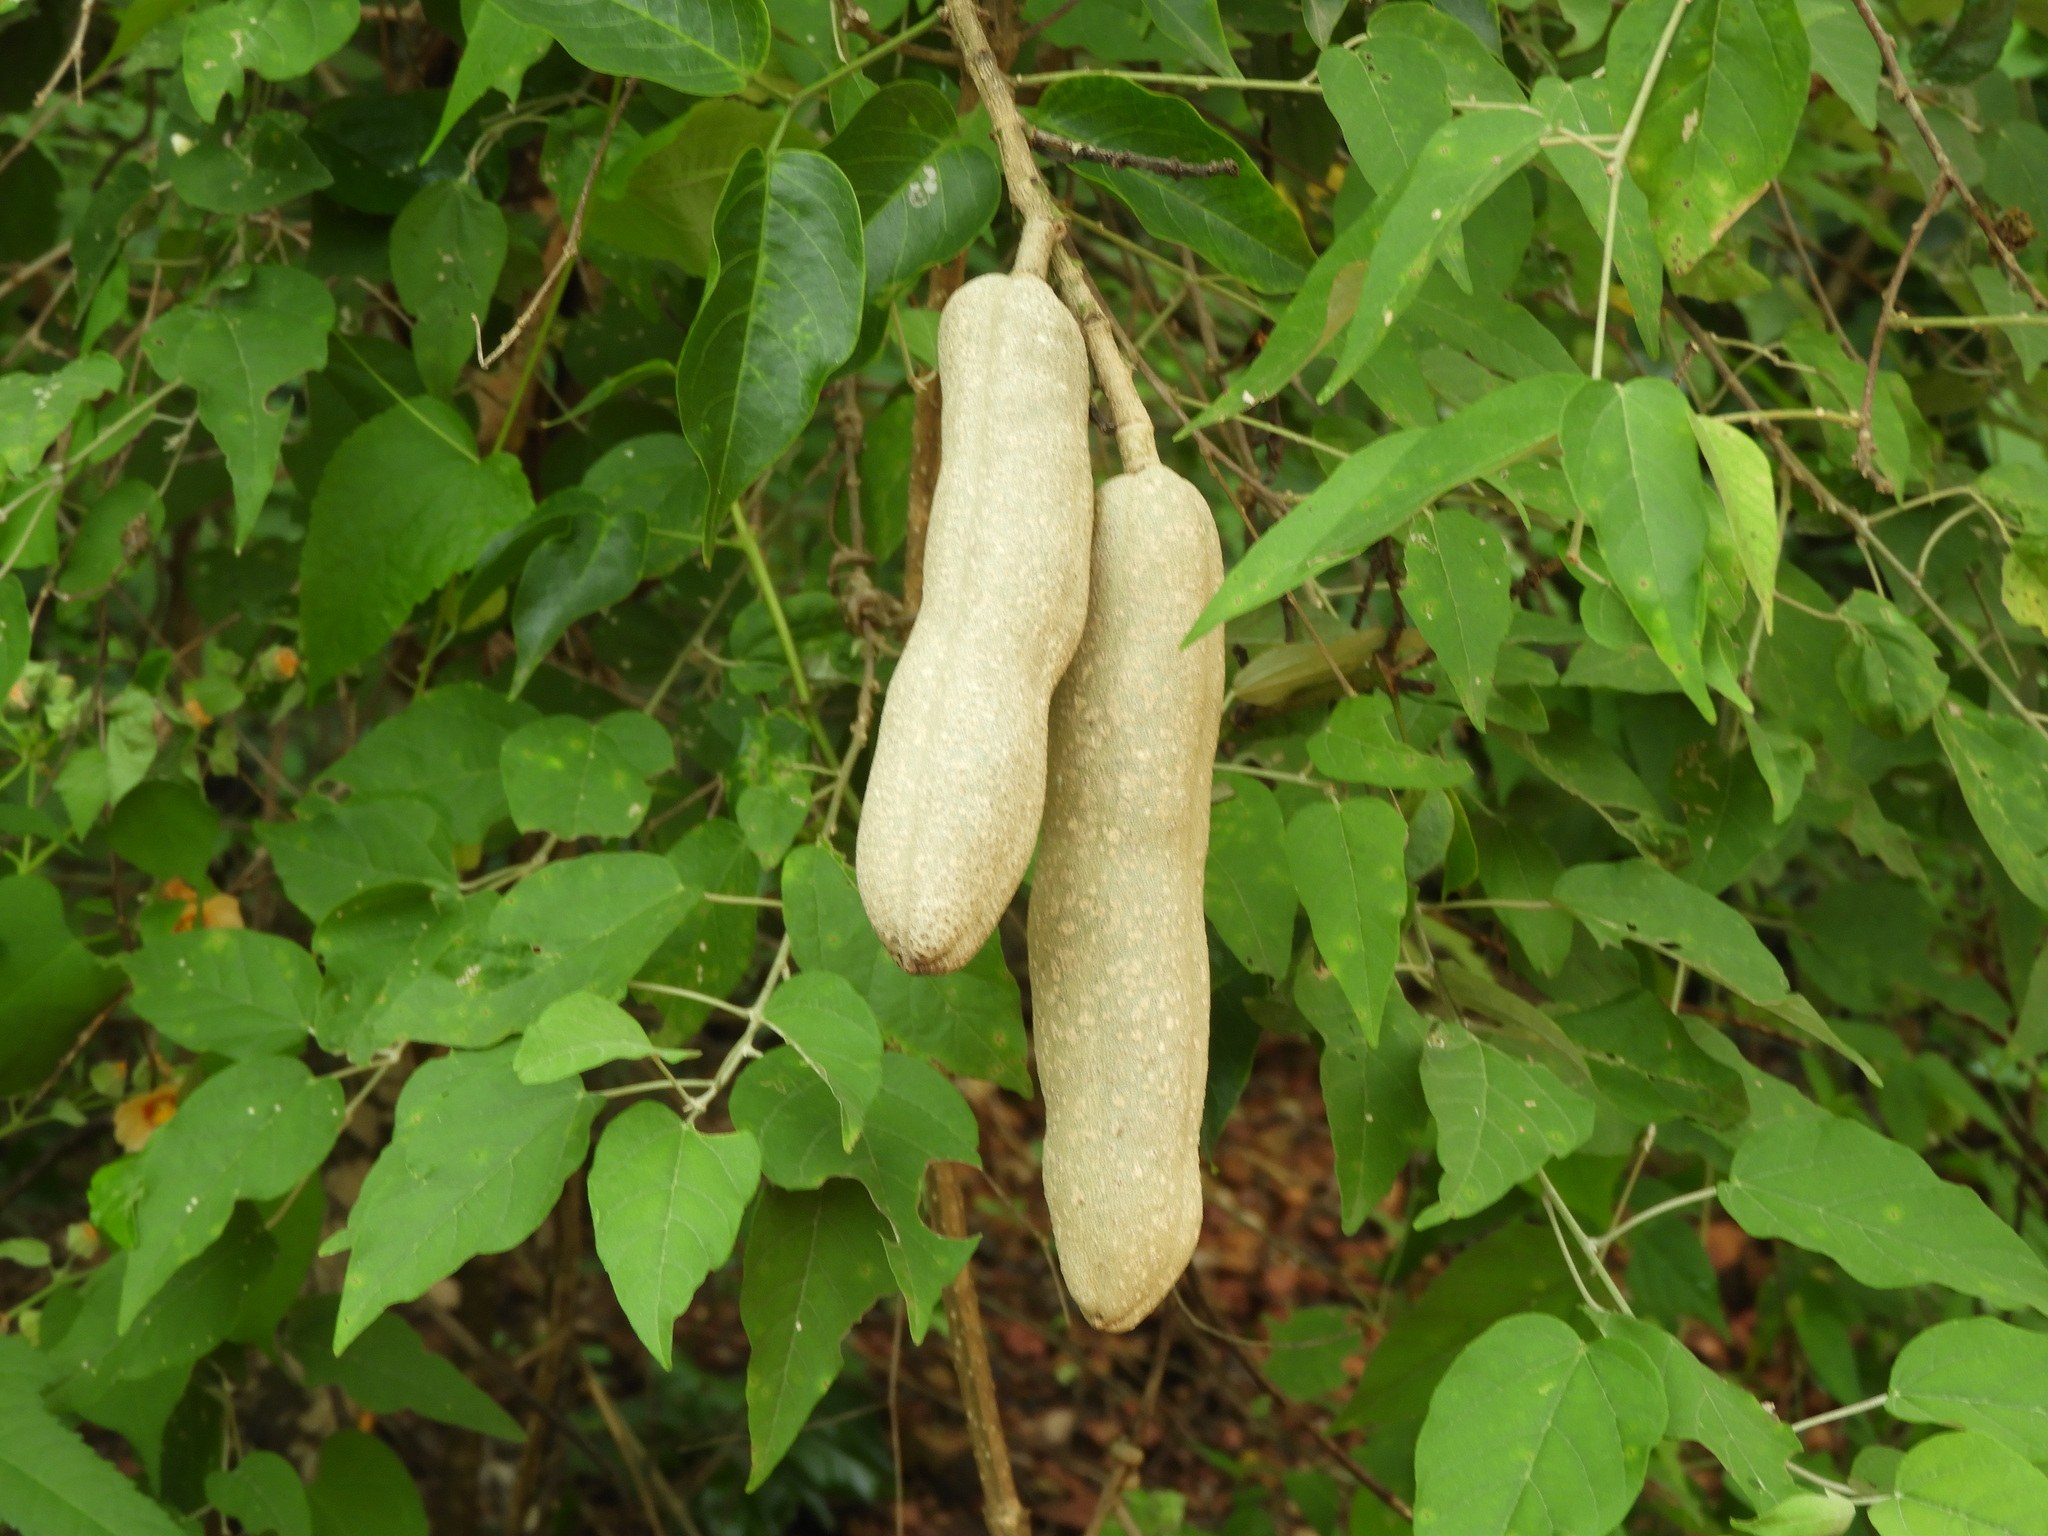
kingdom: Plantae
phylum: Tracheophyta
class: Magnoliopsida
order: Lamiales
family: Bignoniaceae
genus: Adenocalymma
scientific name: Adenocalymma inundatum
